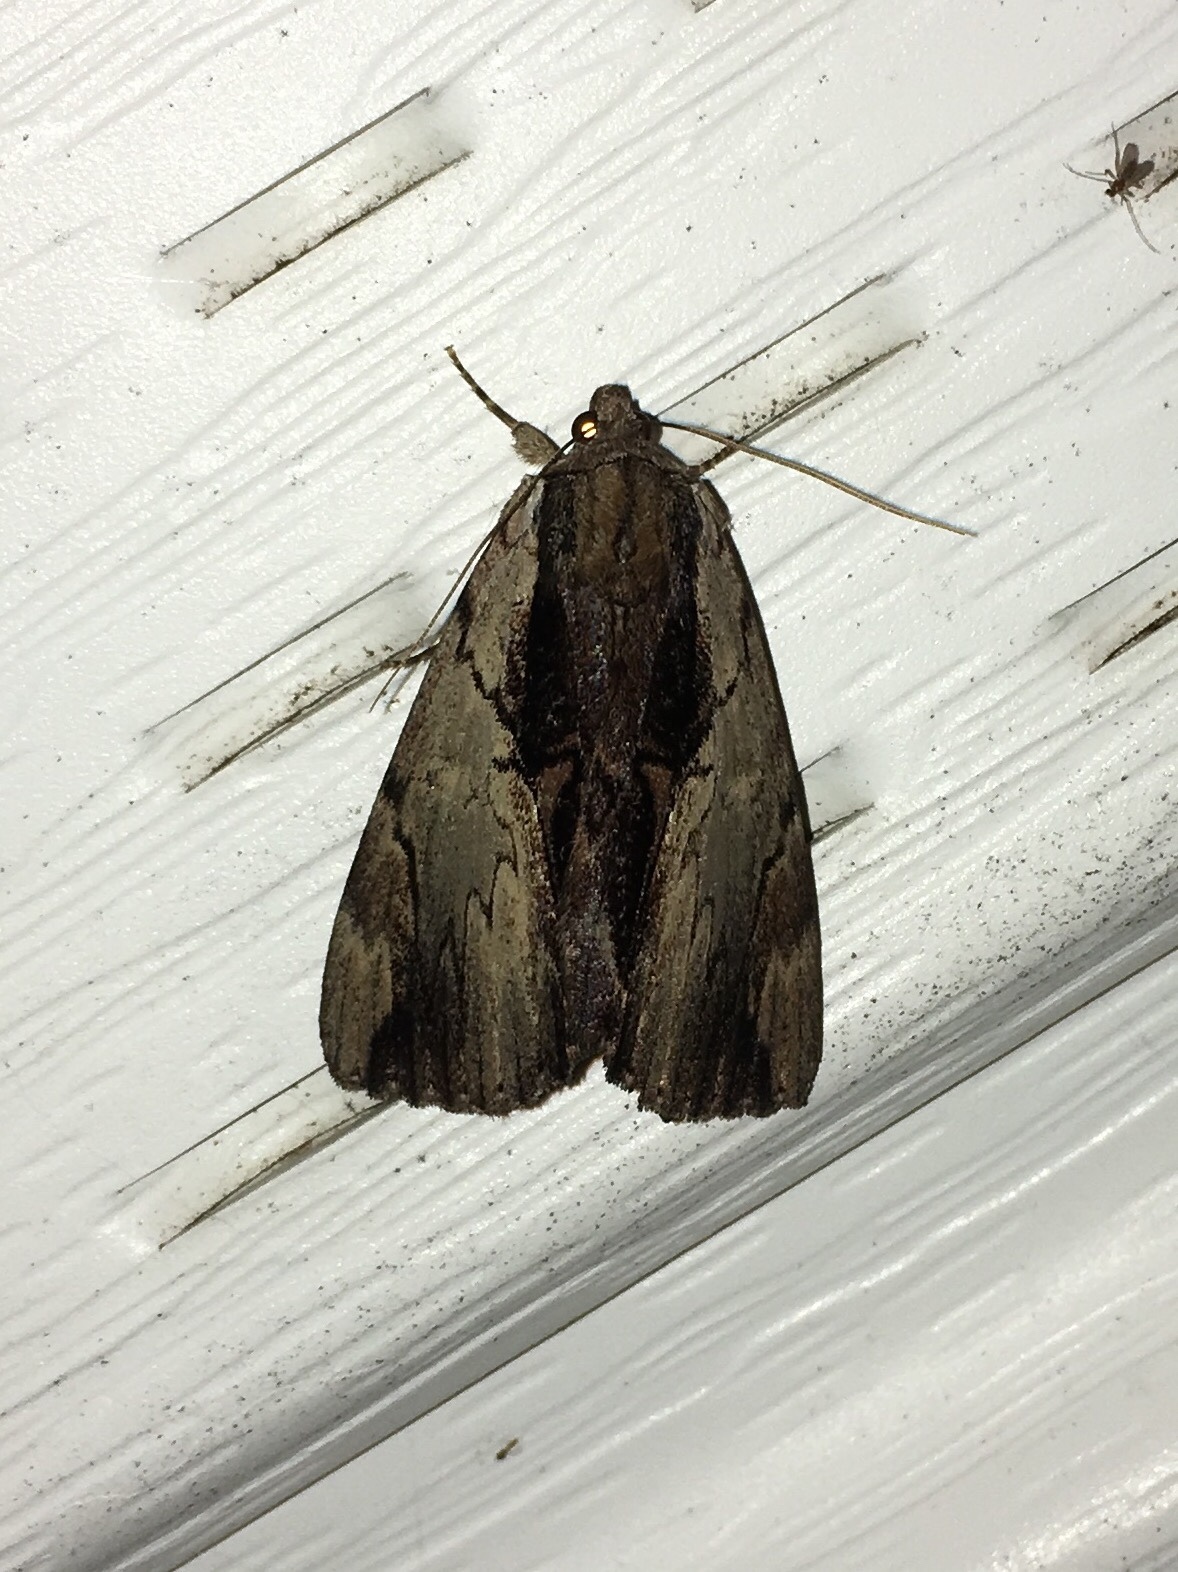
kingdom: Animalia
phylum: Arthropoda
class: Insecta
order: Lepidoptera
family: Erebidae
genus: Catocala
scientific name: Catocala ultronia
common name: Ultronia underwing
